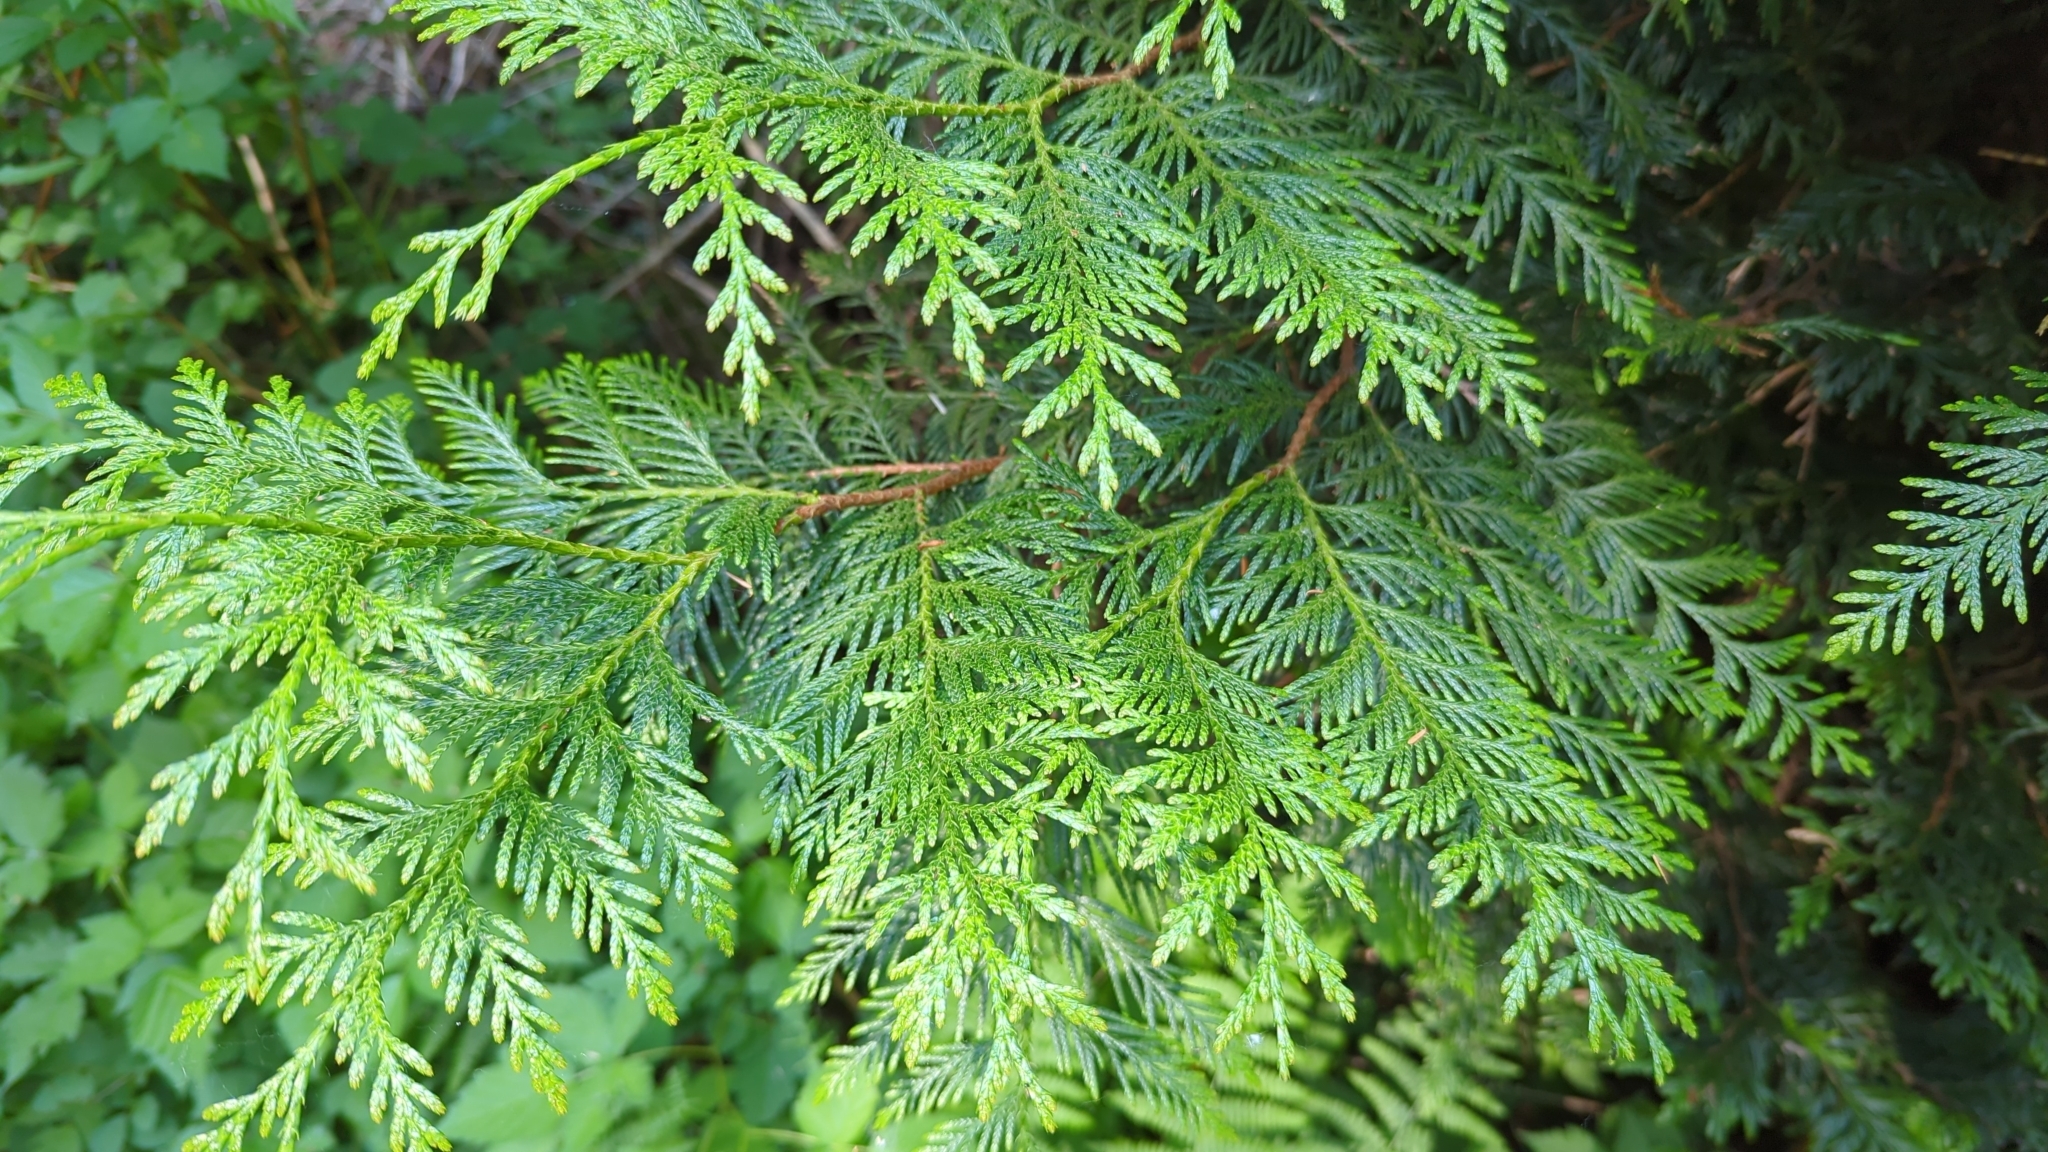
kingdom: Plantae
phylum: Tracheophyta
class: Pinopsida
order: Pinales
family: Cupressaceae
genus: Thuja
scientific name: Thuja plicata
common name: Western red-cedar
